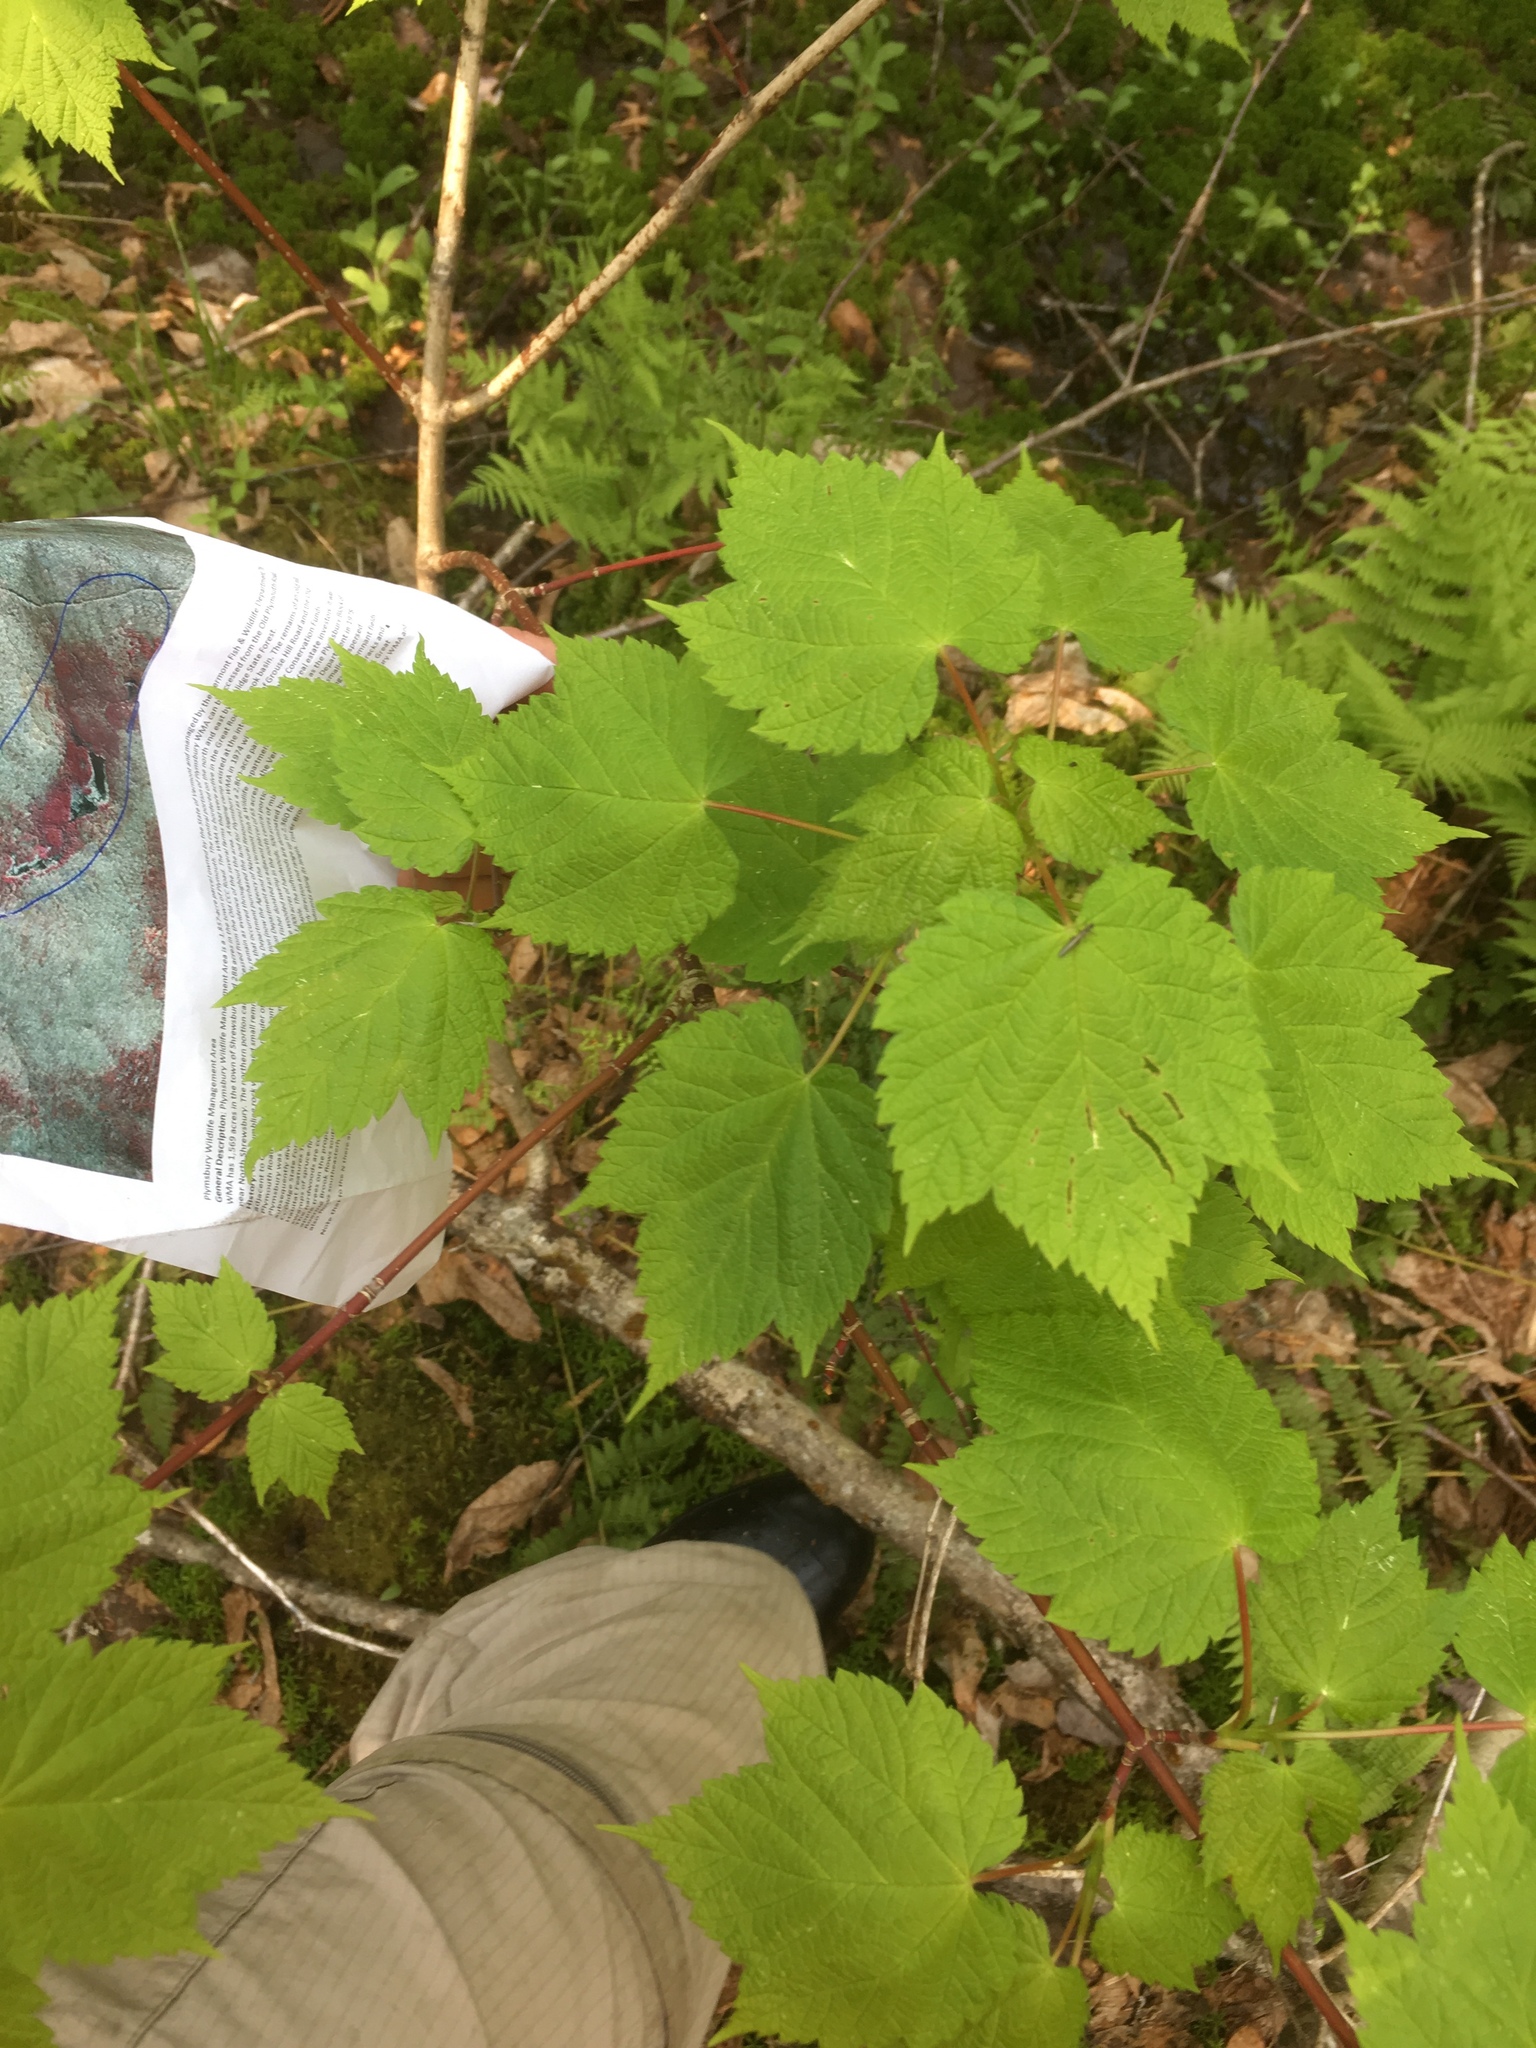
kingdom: Plantae
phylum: Tracheophyta
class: Magnoliopsida
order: Sapindales
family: Sapindaceae
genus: Acer
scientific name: Acer spicatum
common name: Mountain maple
